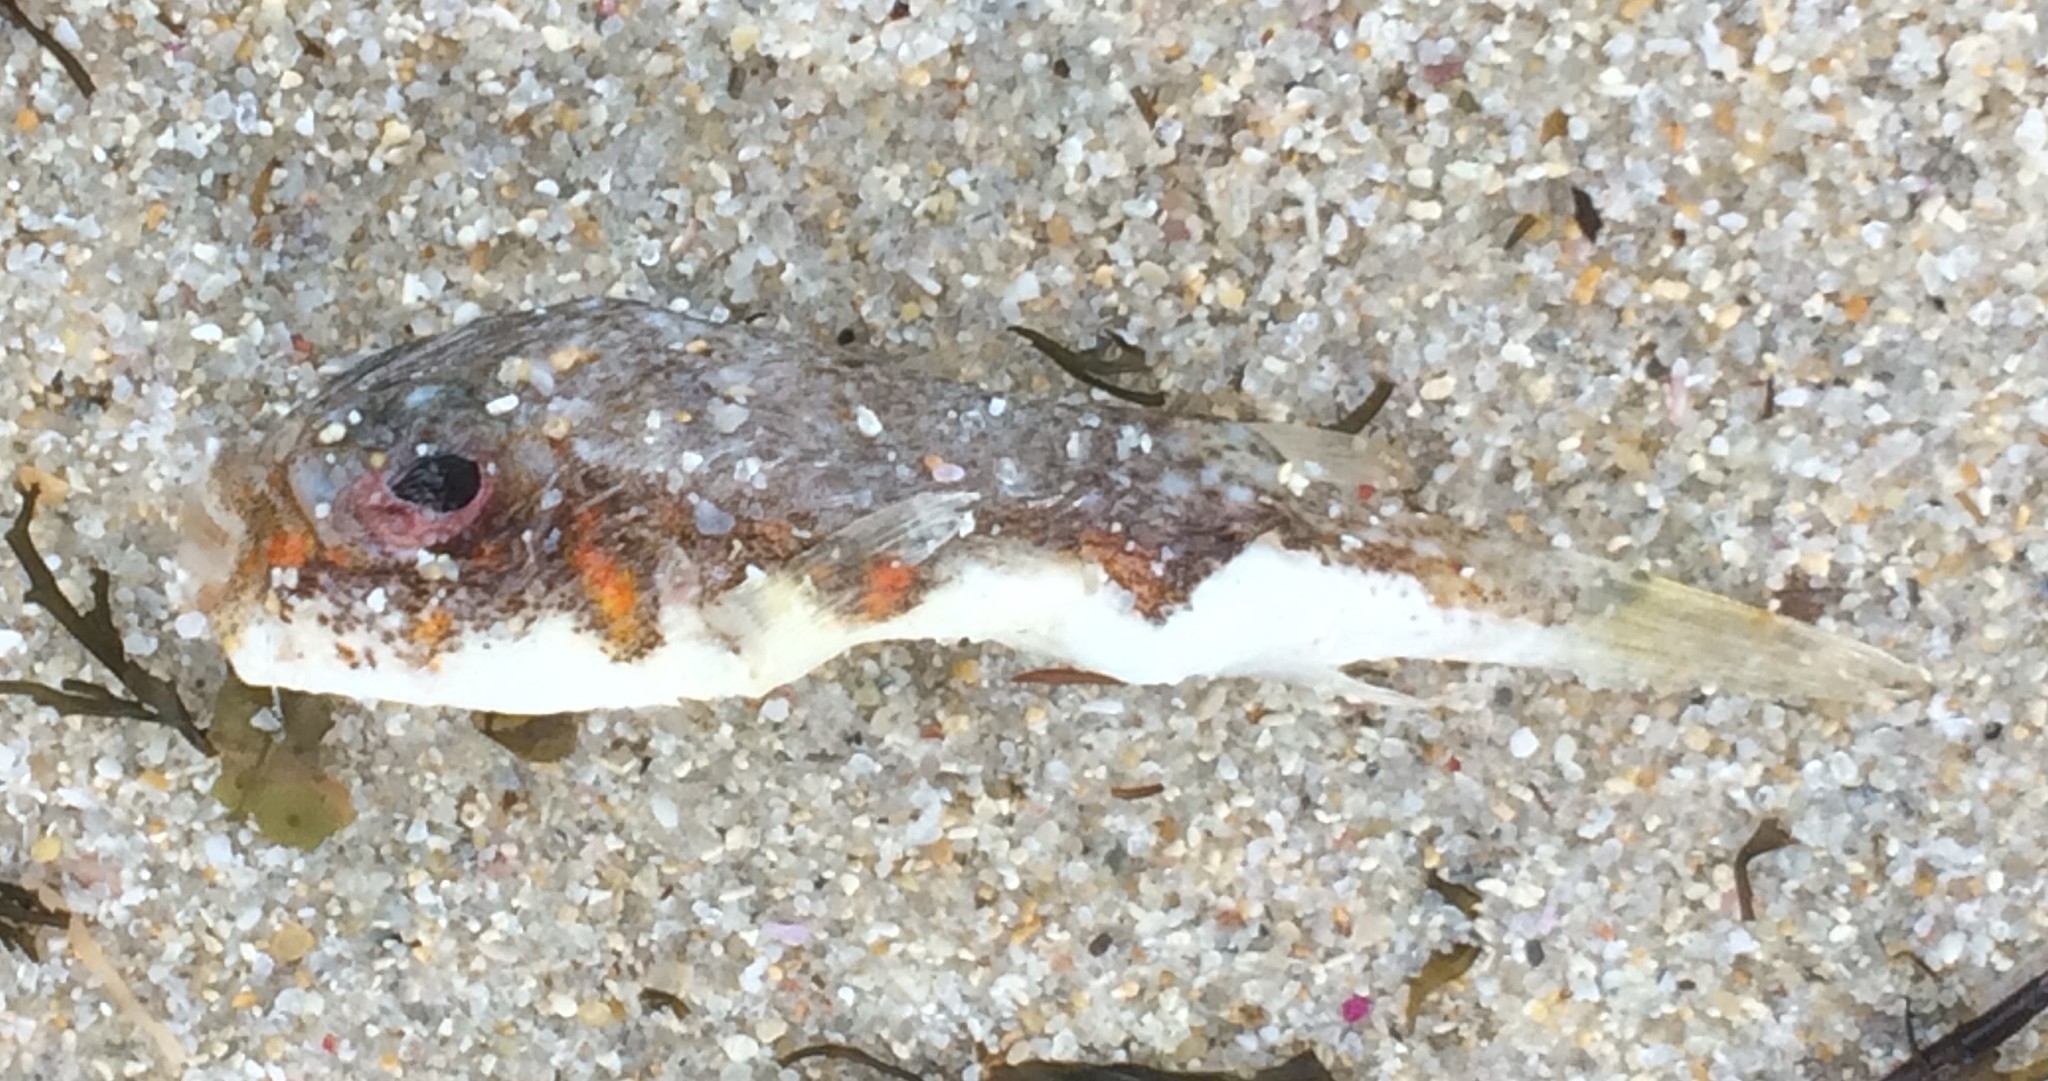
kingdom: Animalia
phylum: Chordata
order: Tetraodontiformes
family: Tetraodontidae
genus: Polyspina
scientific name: Polyspina piosae
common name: Orange-barred pufferfish
